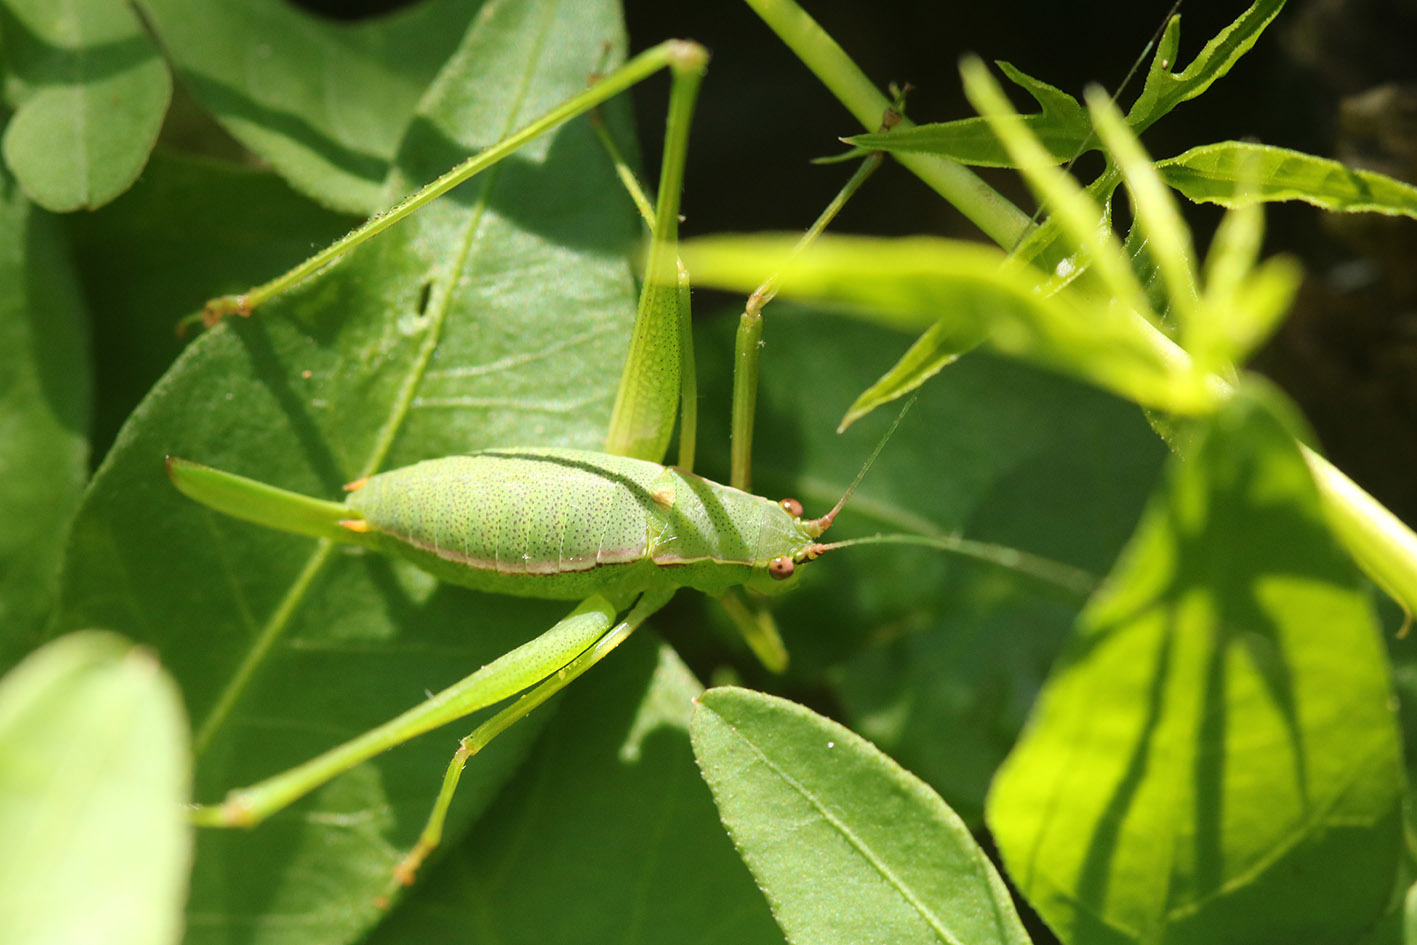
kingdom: Animalia
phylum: Arthropoda
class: Insecta
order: Orthoptera
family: Tettigoniidae
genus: Xenicola
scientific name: Xenicola dohrni
